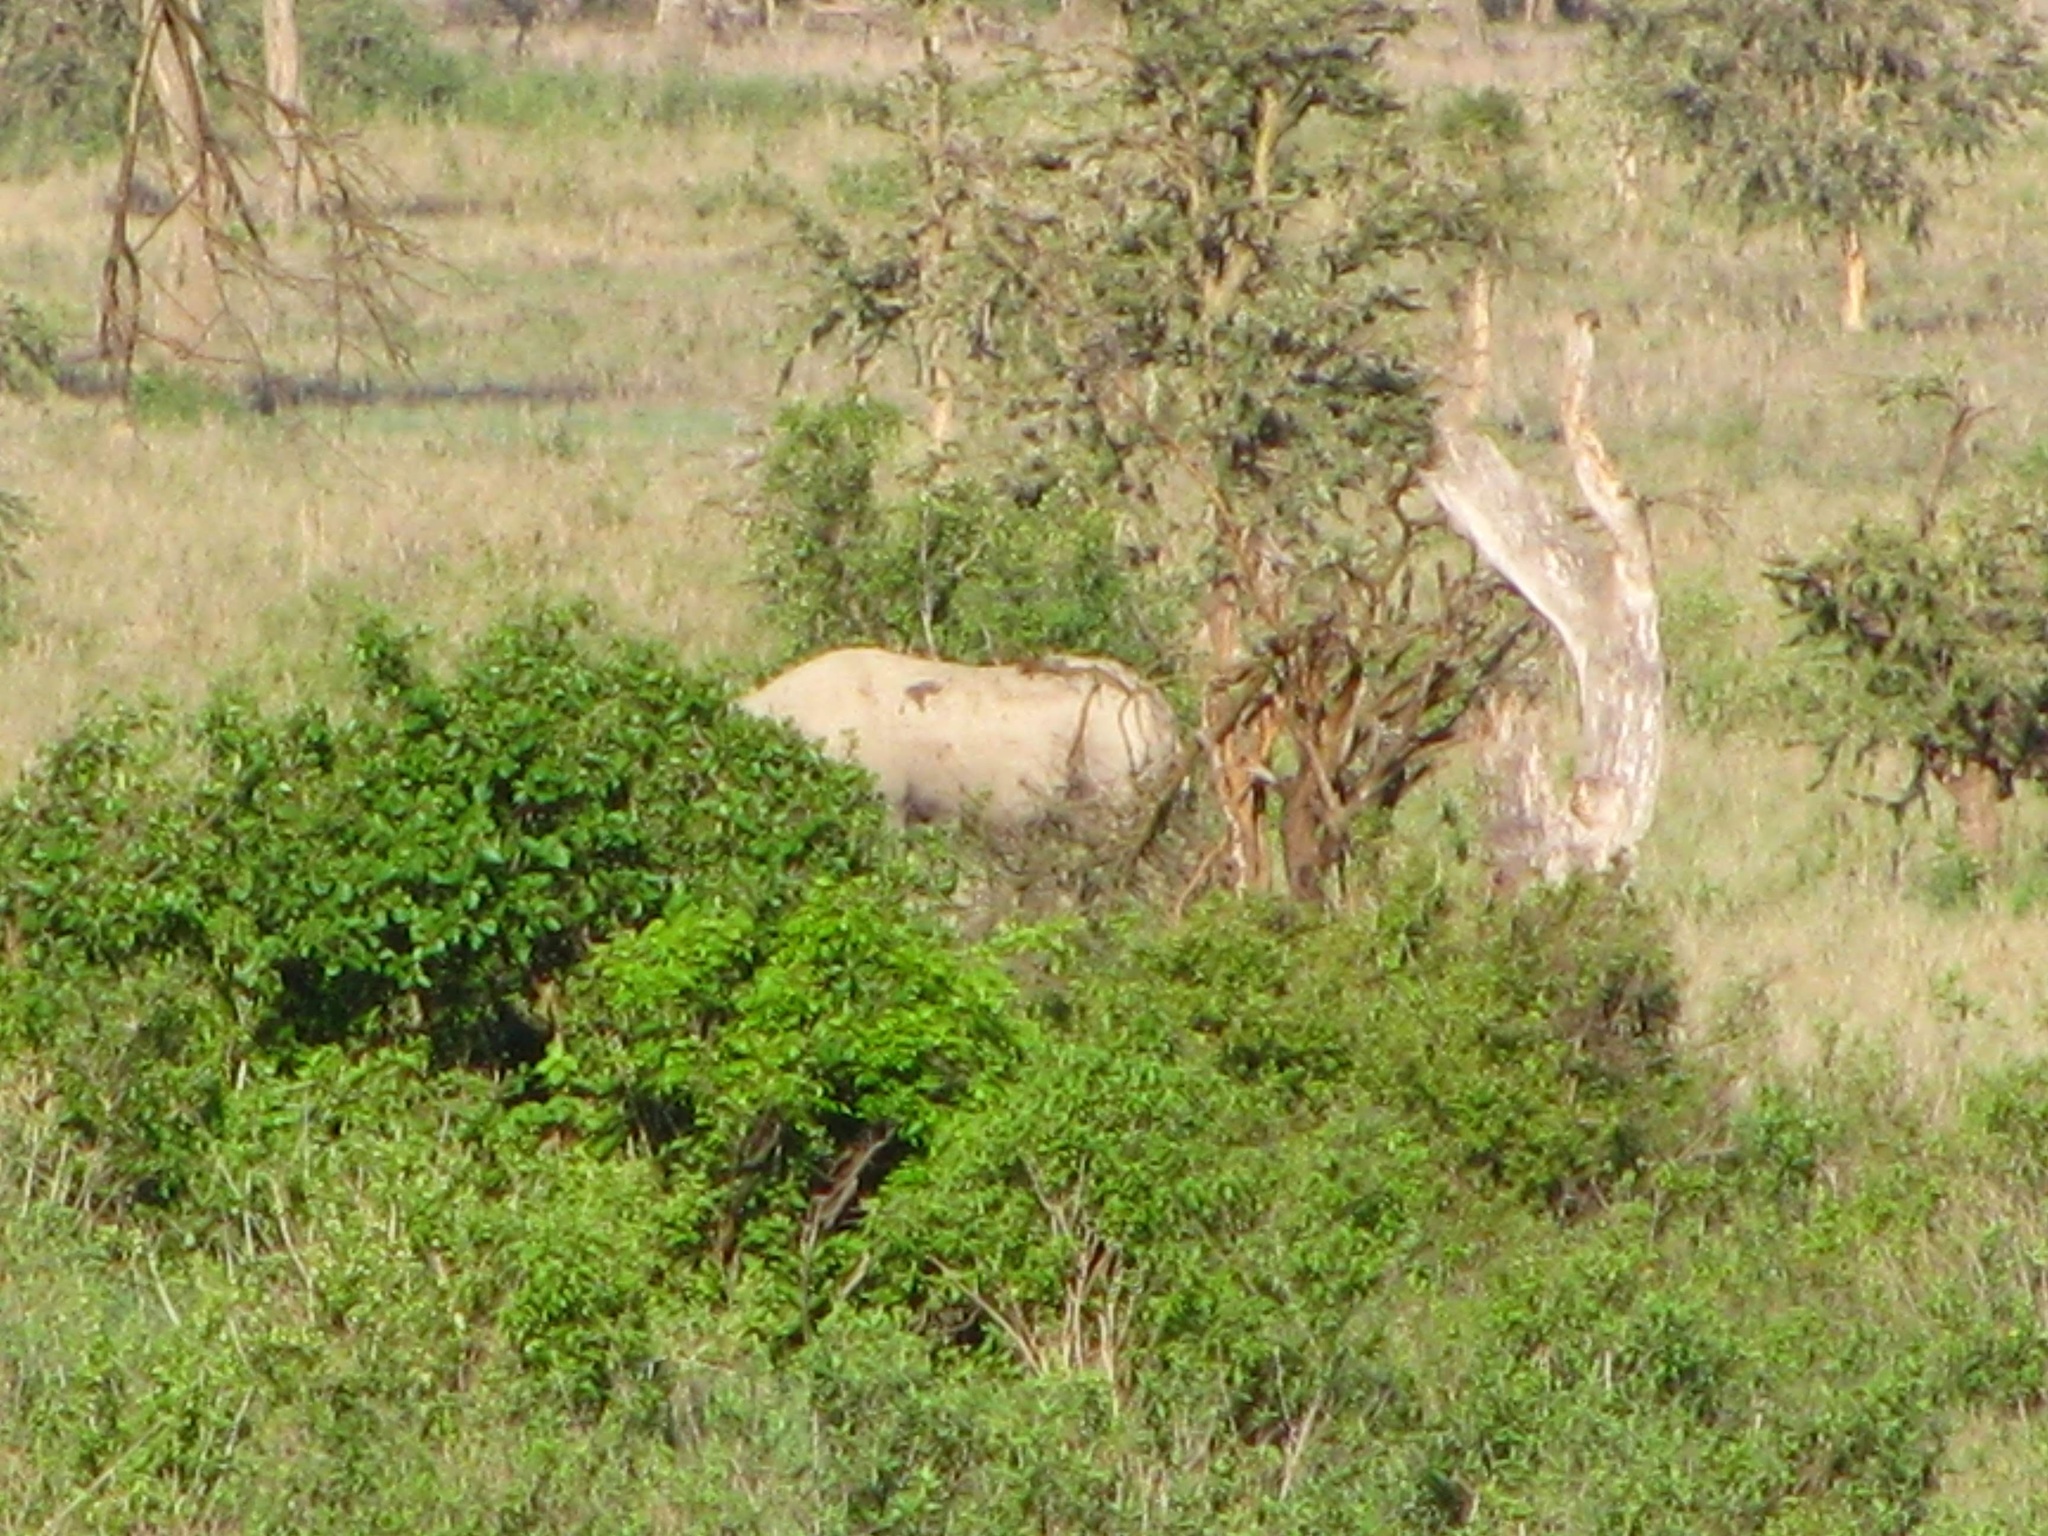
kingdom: Animalia
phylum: Chordata
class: Mammalia
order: Perissodactyla
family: Rhinocerotidae
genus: Diceros
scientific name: Diceros bicornis
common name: Black rhinoceros
